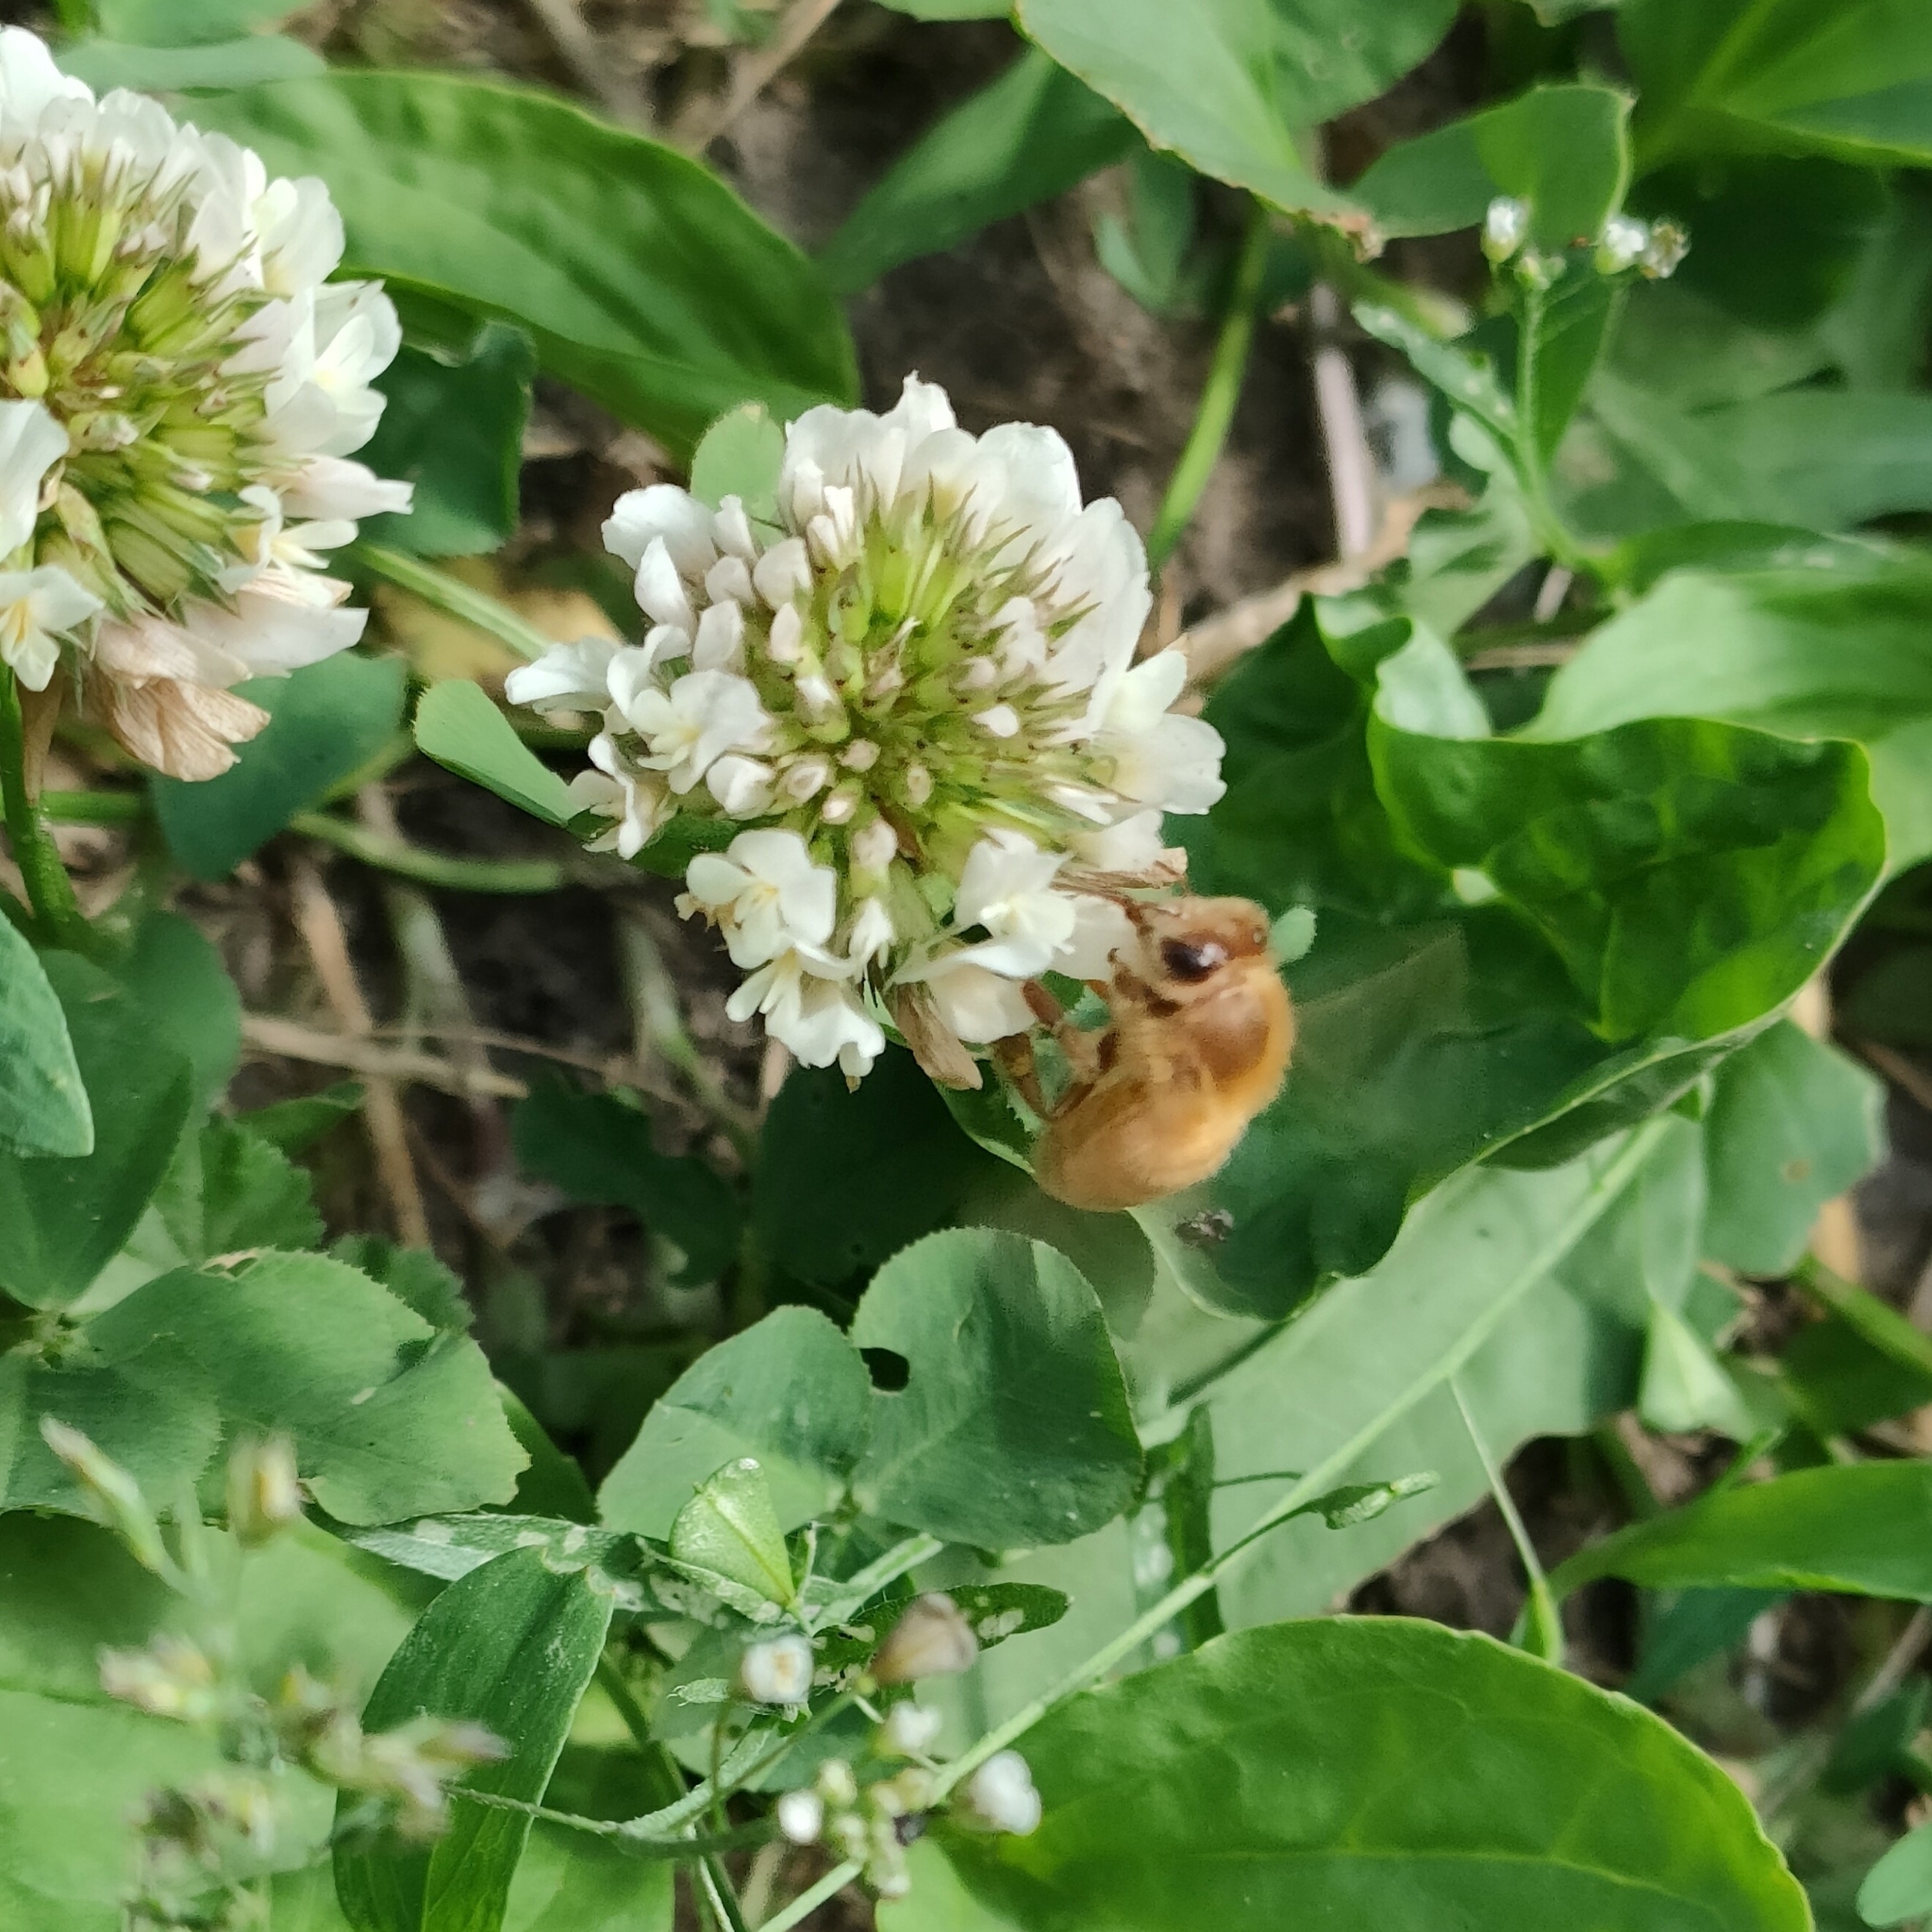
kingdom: Animalia
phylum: Arthropoda
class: Insecta
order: Hymenoptera
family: Apidae
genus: Apis
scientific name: Apis mellifera
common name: Honey bee
